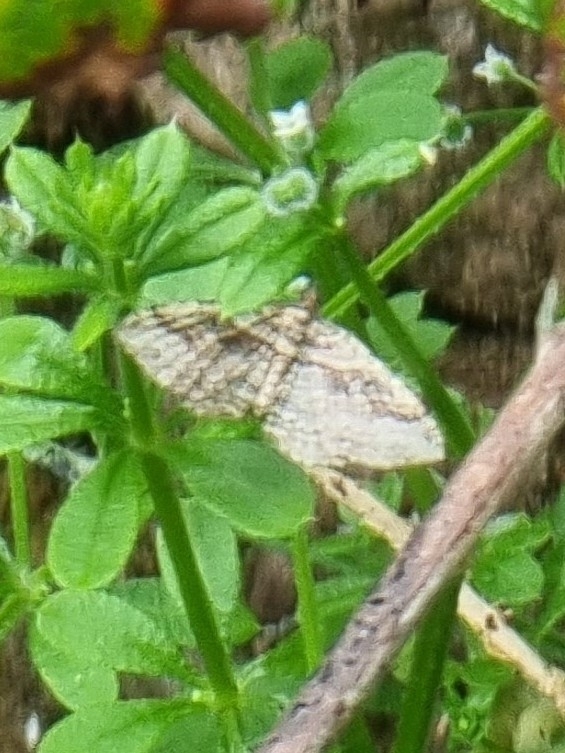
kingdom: Animalia
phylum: Arthropoda
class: Insecta
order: Lepidoptera
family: Geometridae
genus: Costaconvexa
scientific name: Costaconvexa centrostrigaria
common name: Bent-line carpet
